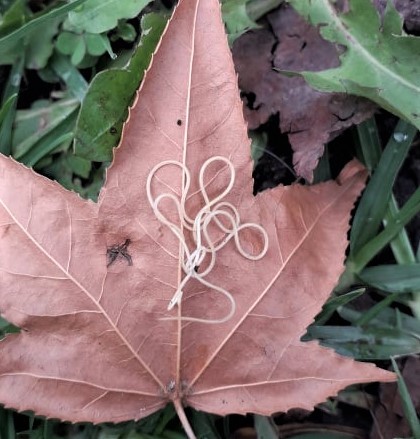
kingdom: Animalia
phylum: Nematoda
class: Chromadorea
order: Rhabditida
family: Ascarididae
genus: Toxocara
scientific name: Toxocara canis
